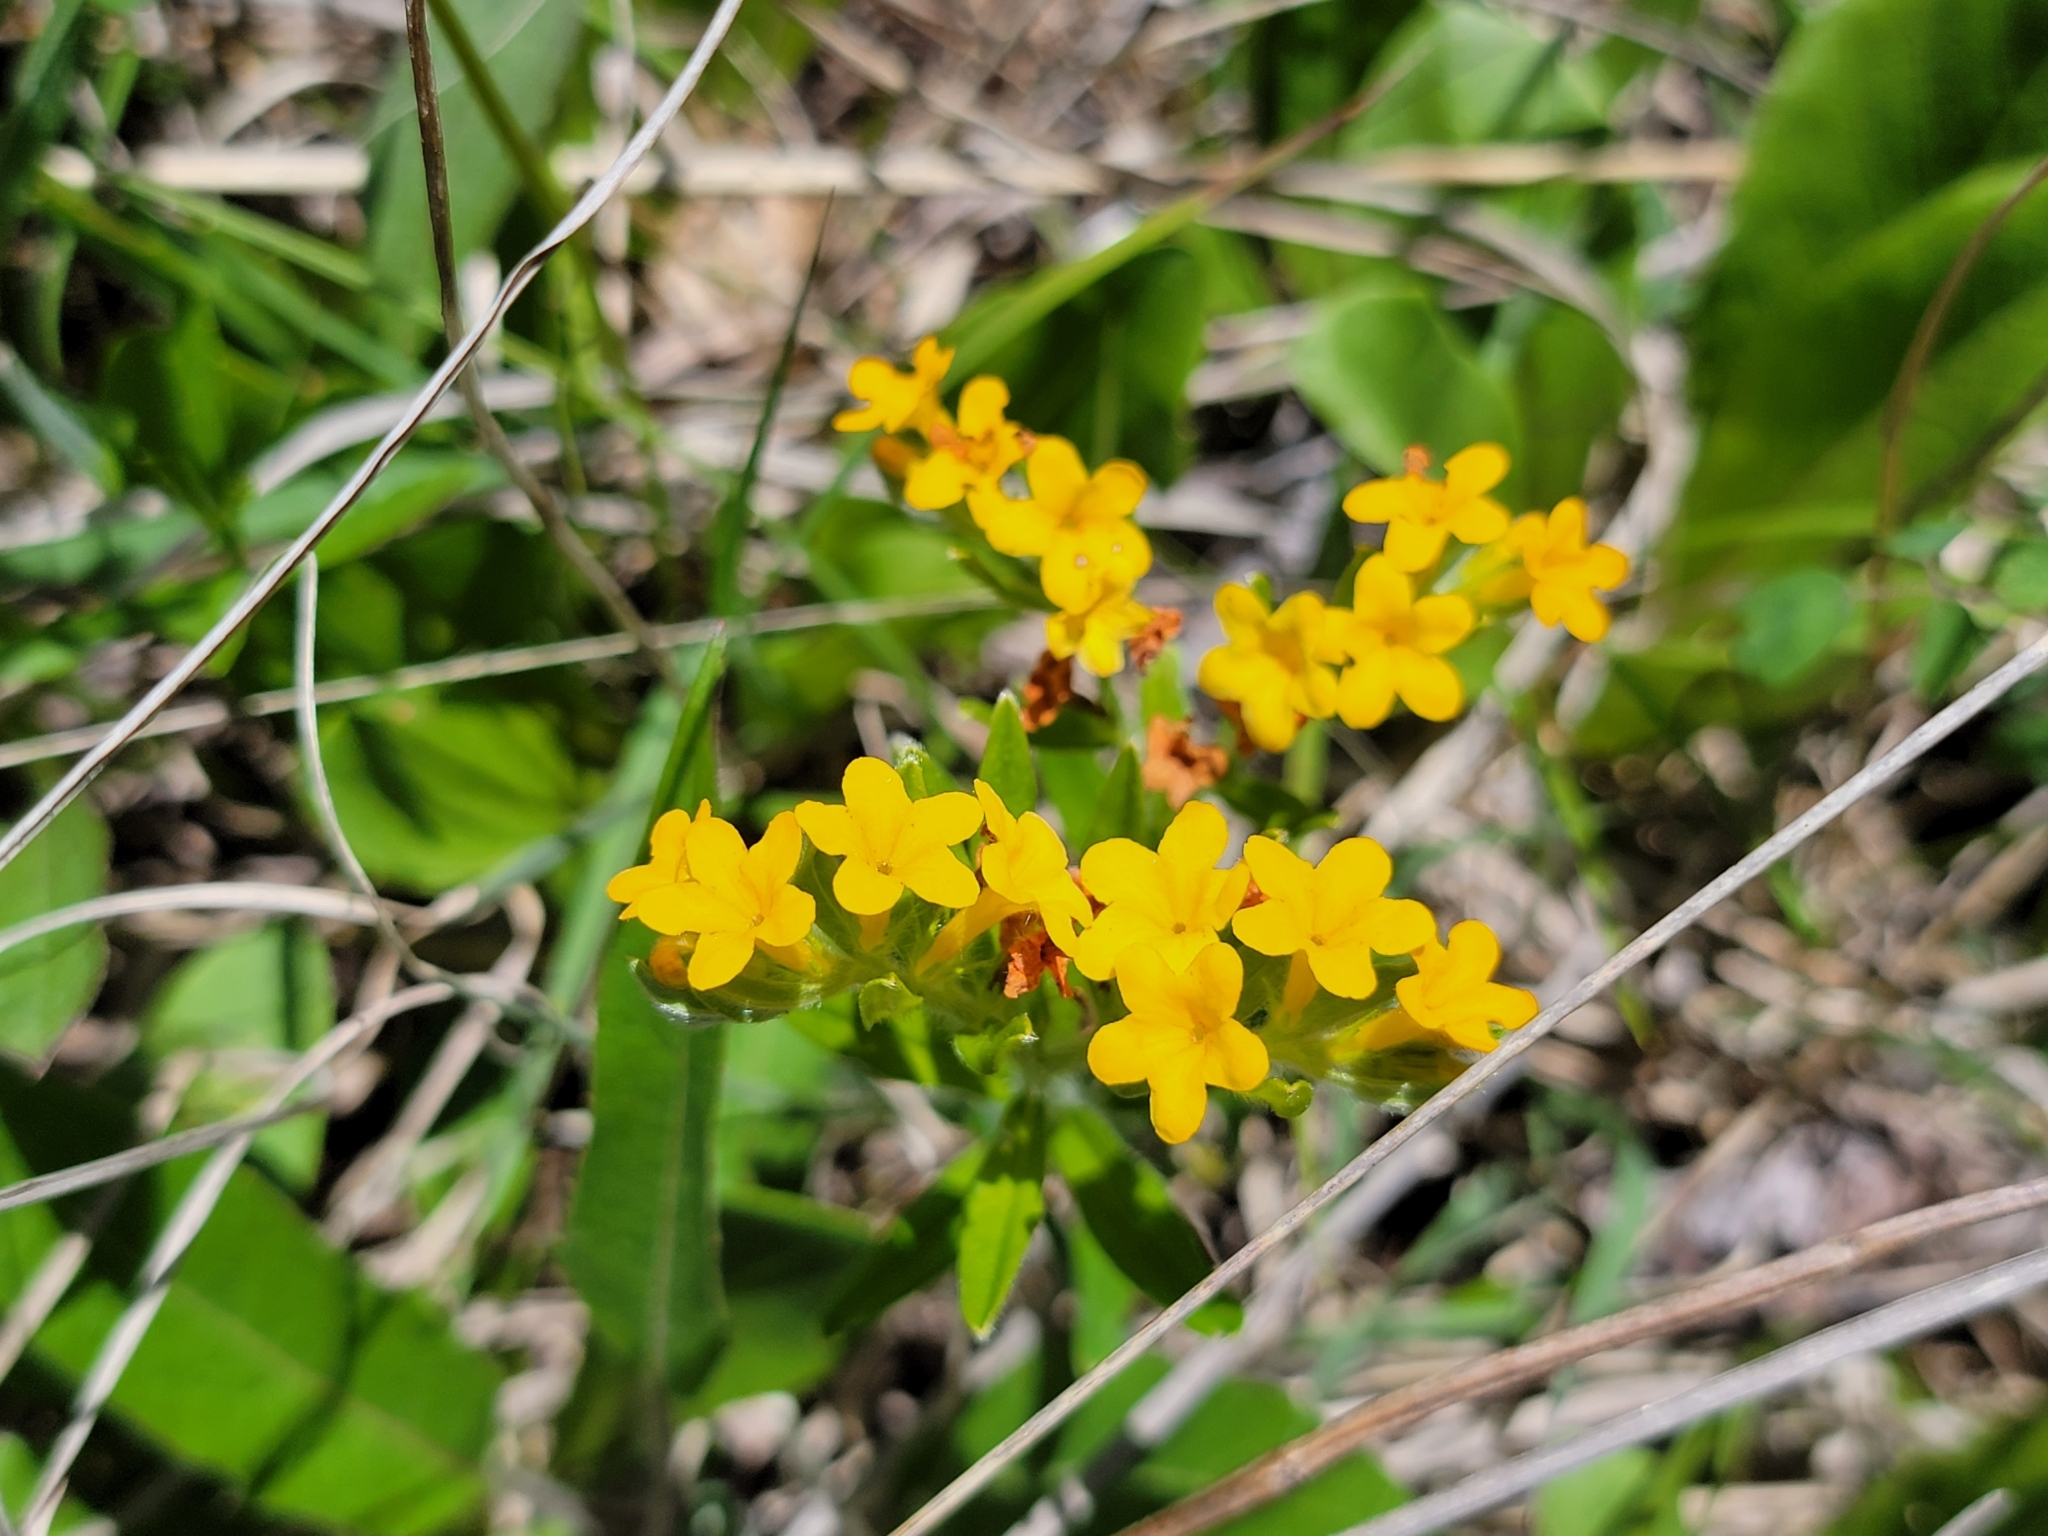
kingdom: Plantae
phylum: Tracheophyta
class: Magnoliopsida
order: Boraginales
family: Boraginaceae
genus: Lithospermum
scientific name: Lithospermum canescens
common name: Hoary puccoon
